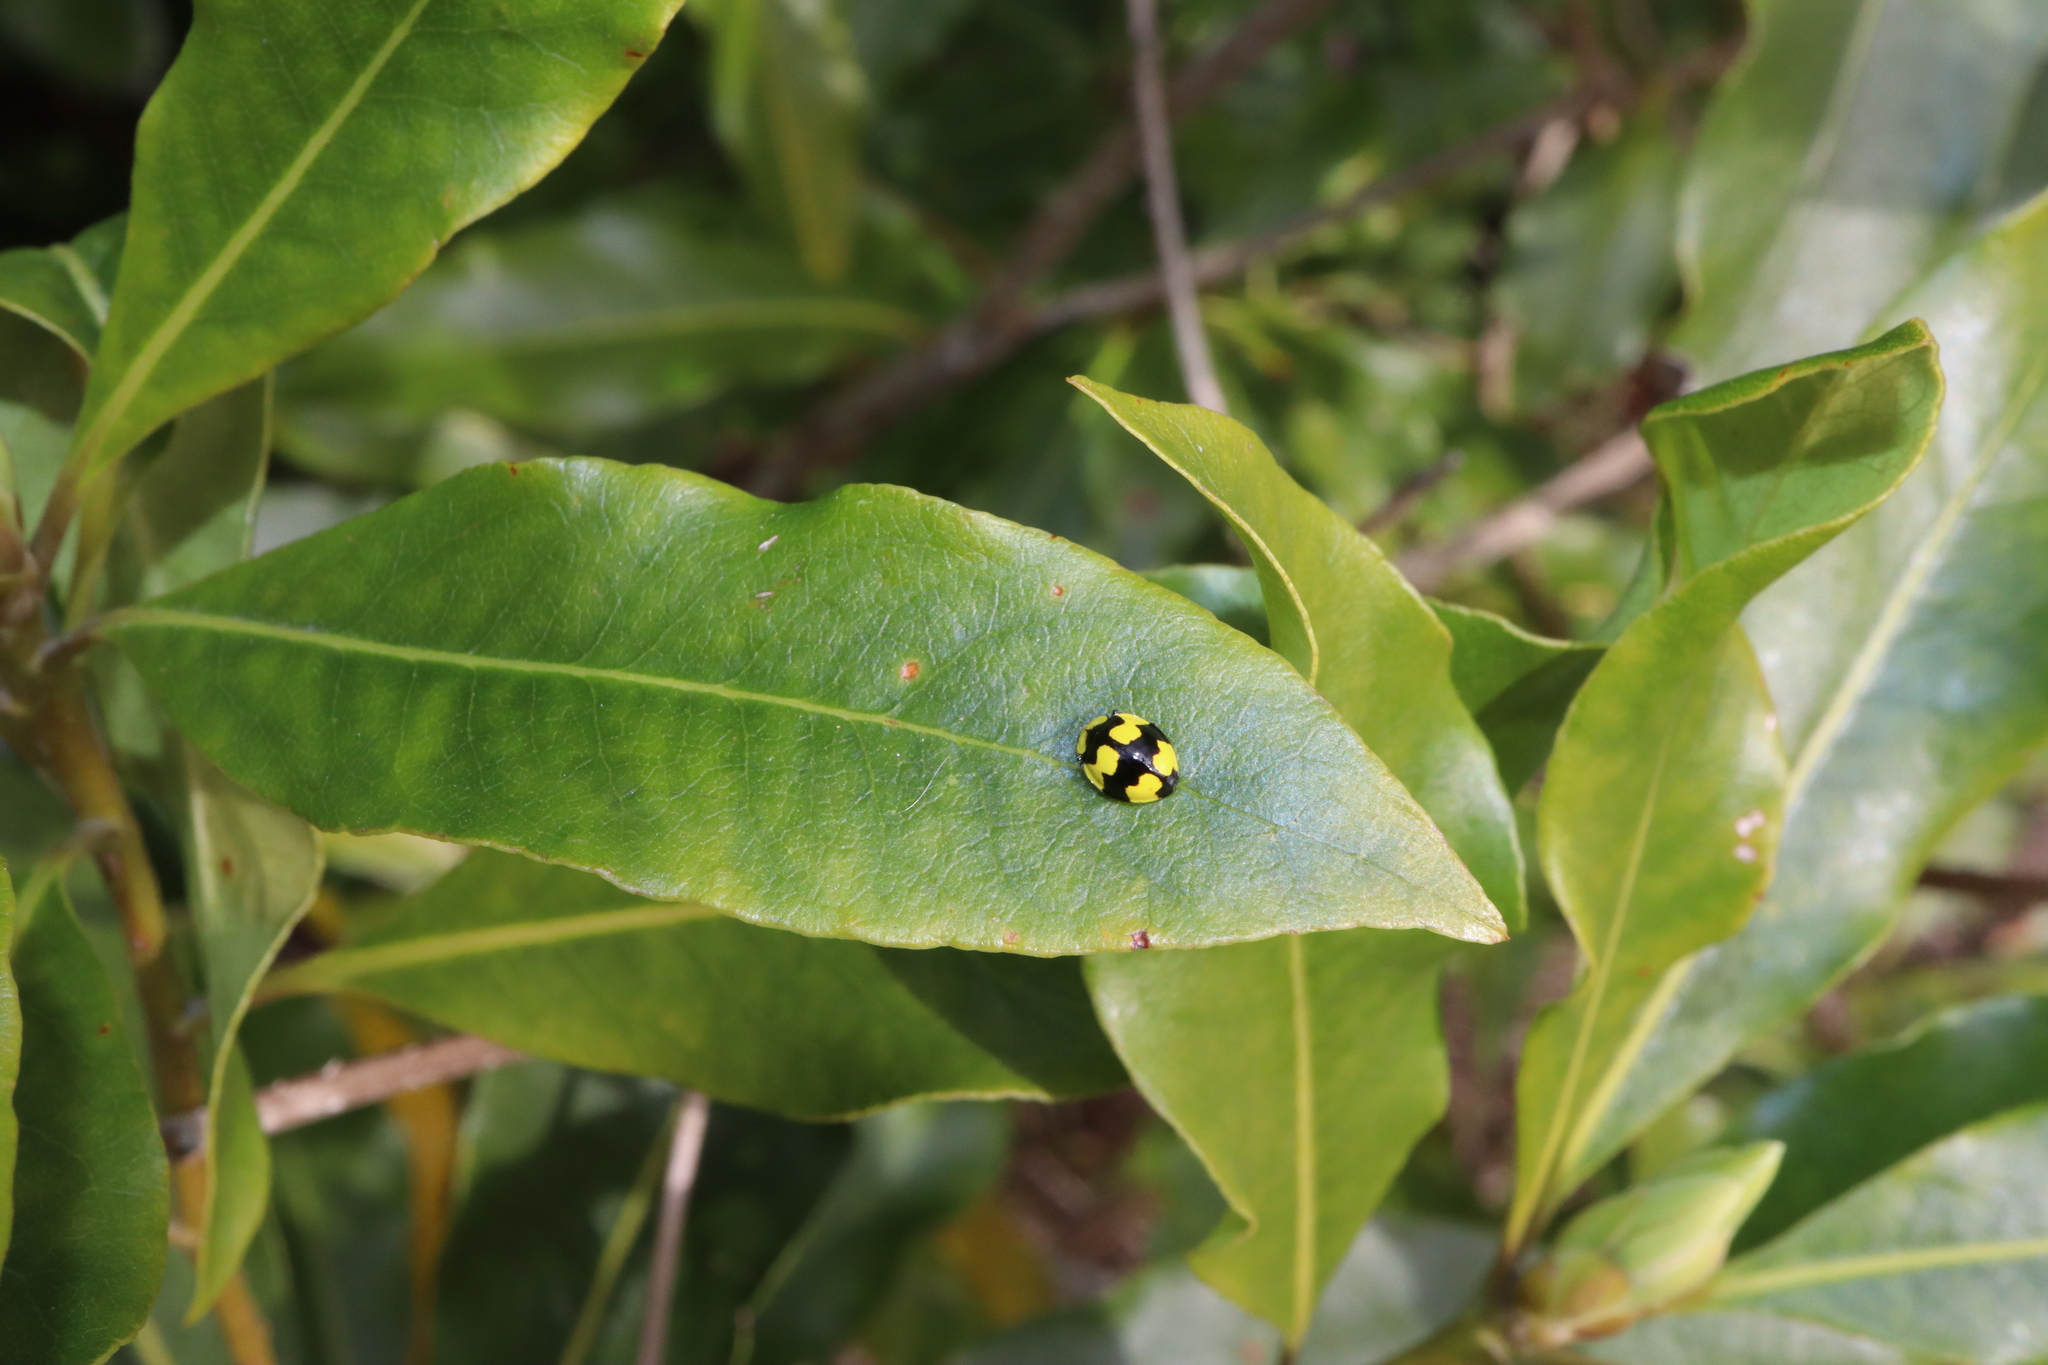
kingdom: Animalia
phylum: Arthropoda
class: Insecta
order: Coleoptera
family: Coccinellidae
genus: Illeis
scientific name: Illeis galbula
